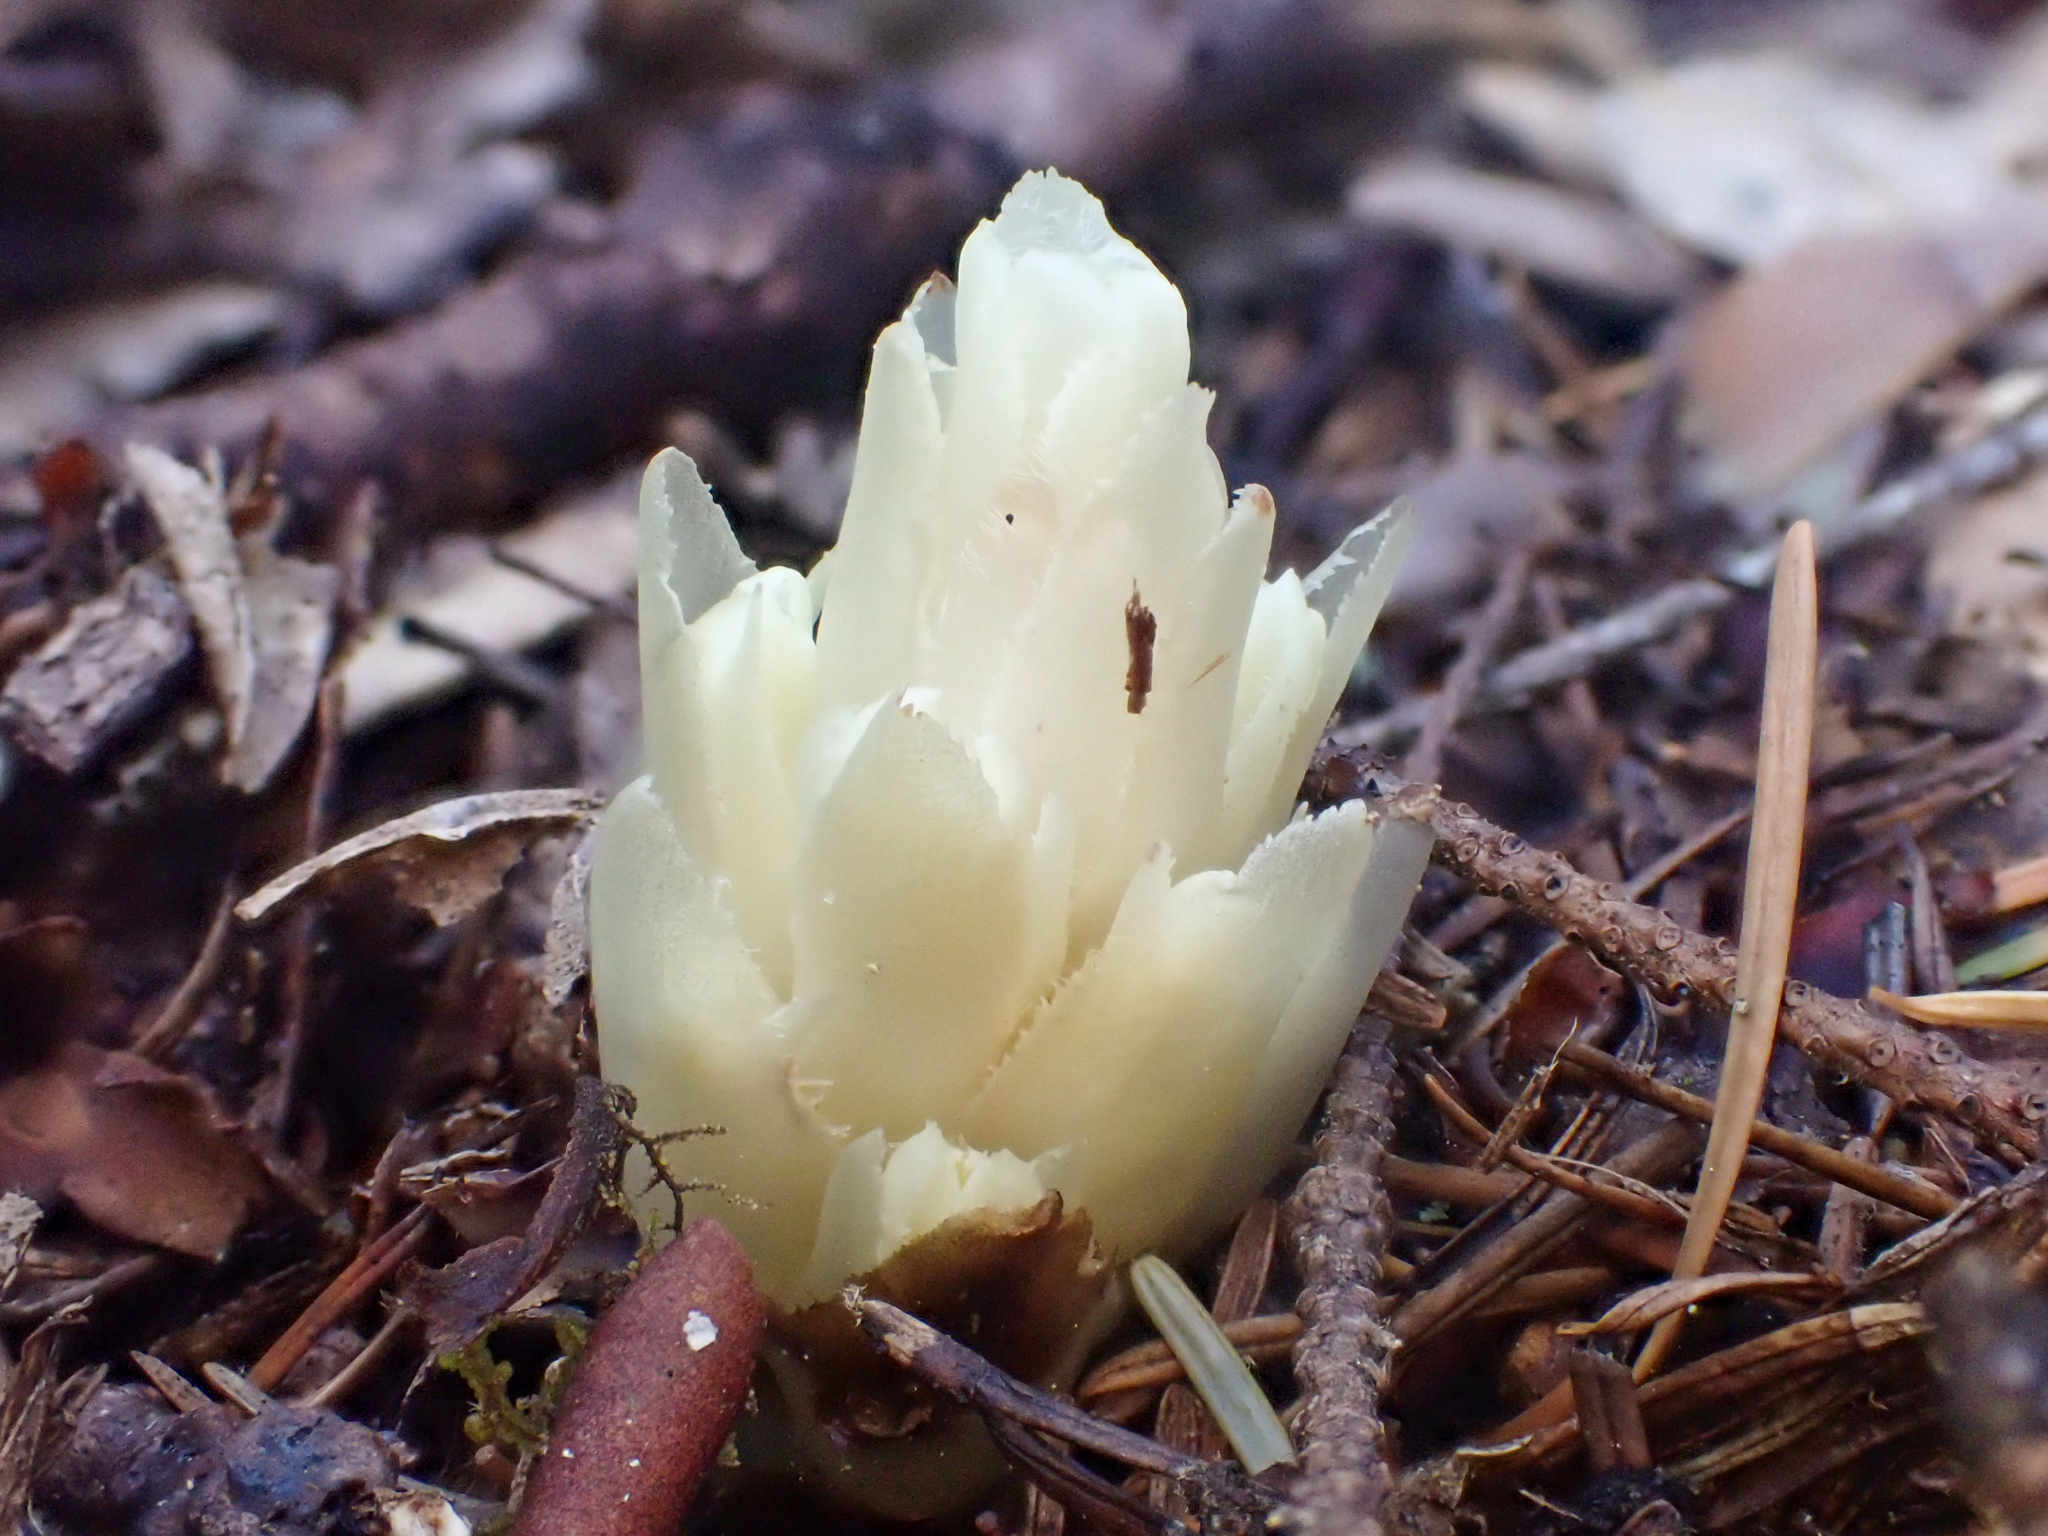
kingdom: Plantae
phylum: Tracheophyta
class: Magnoliopsida
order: Ericales
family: Ericaceae
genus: Pityopus
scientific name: Pityopus californica
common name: California pinefoot
